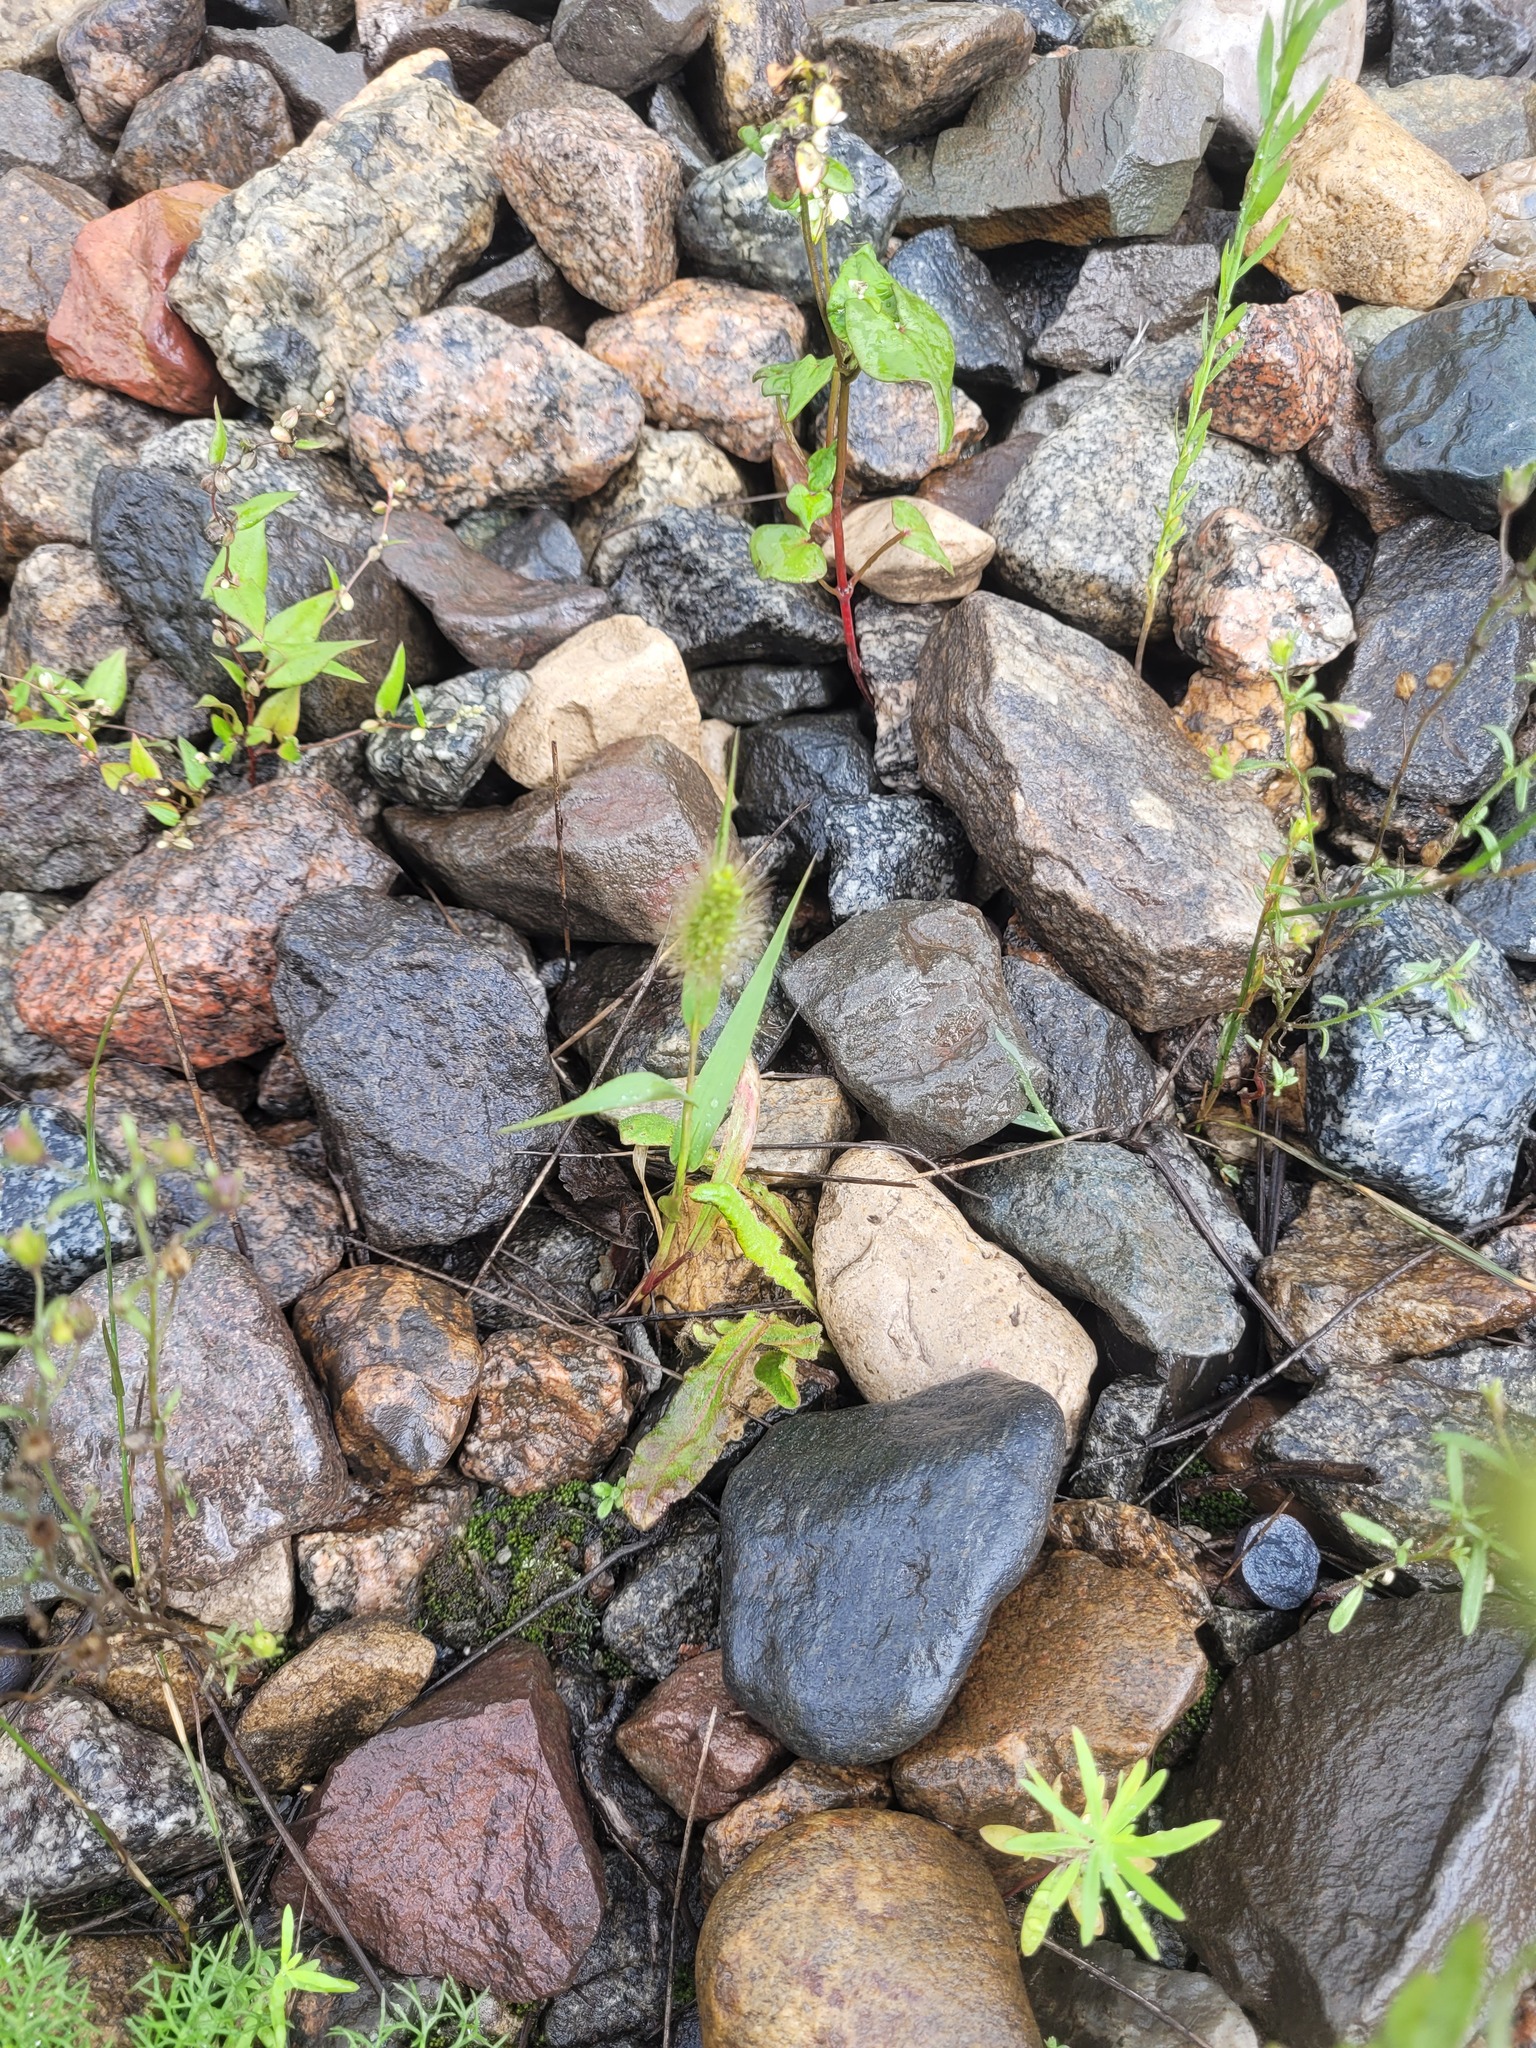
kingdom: Plantae
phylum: Tracheophyta
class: Liliopsida
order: Poales
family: Poaceae
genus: Setaria
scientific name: Setaria viridis
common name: Green bristlegrass
